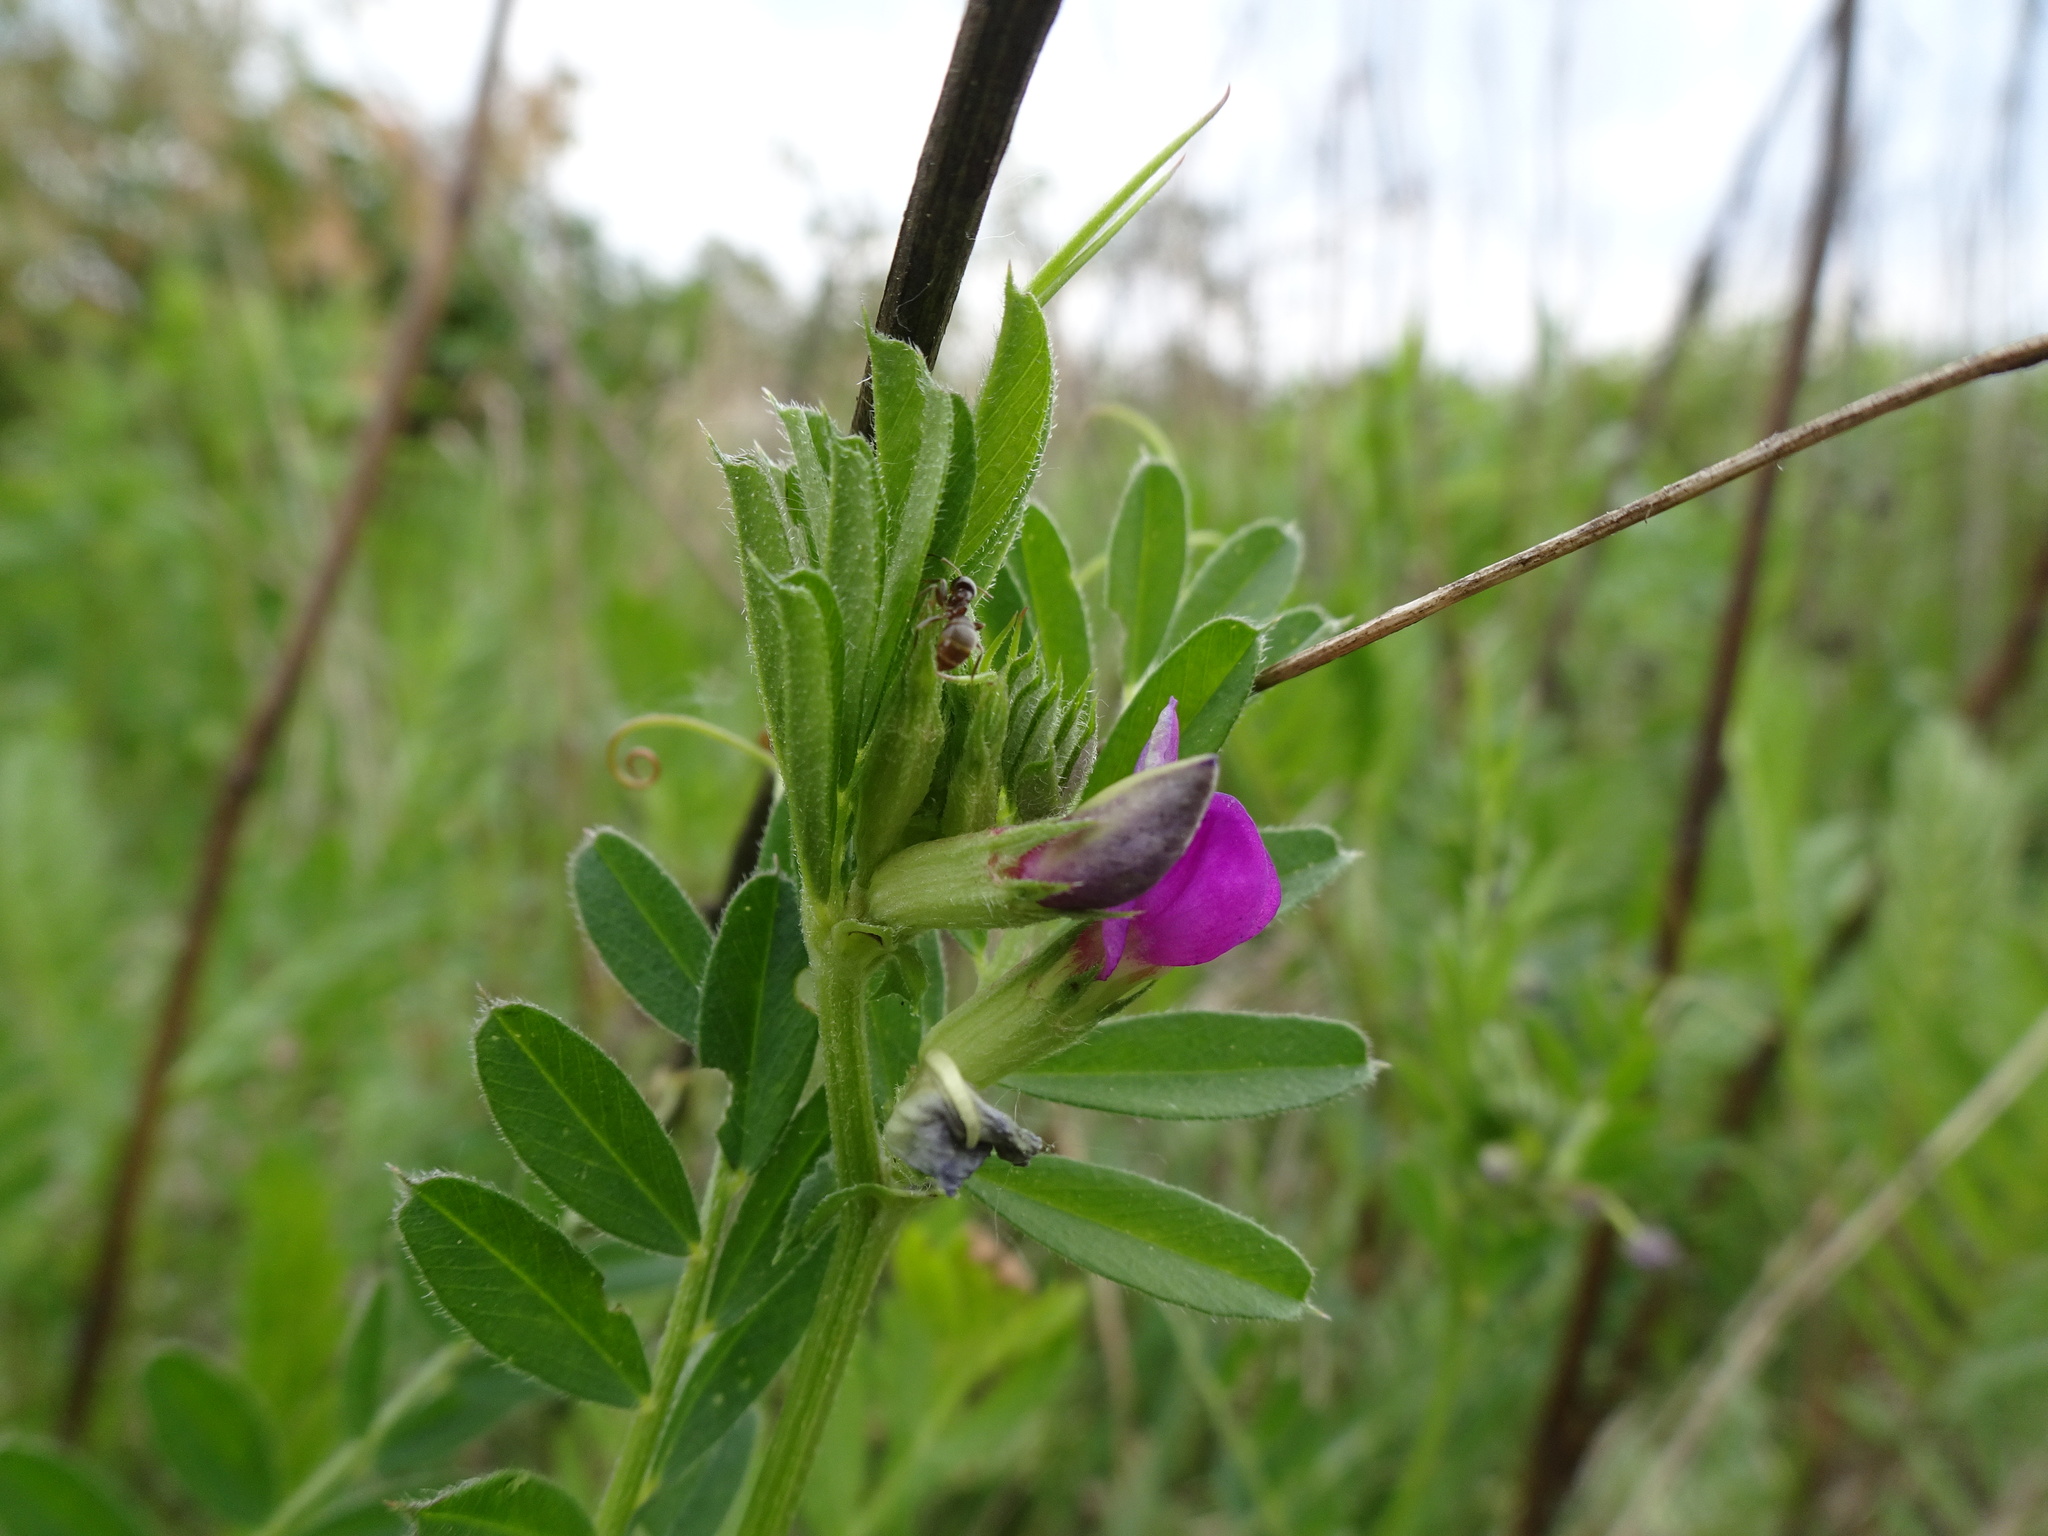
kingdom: Plantae
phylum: Tracheophyta
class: Magnoliopsida
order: Fabales
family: Fabaceae
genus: Vicia
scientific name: Vicia sativa
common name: Garden vetch
